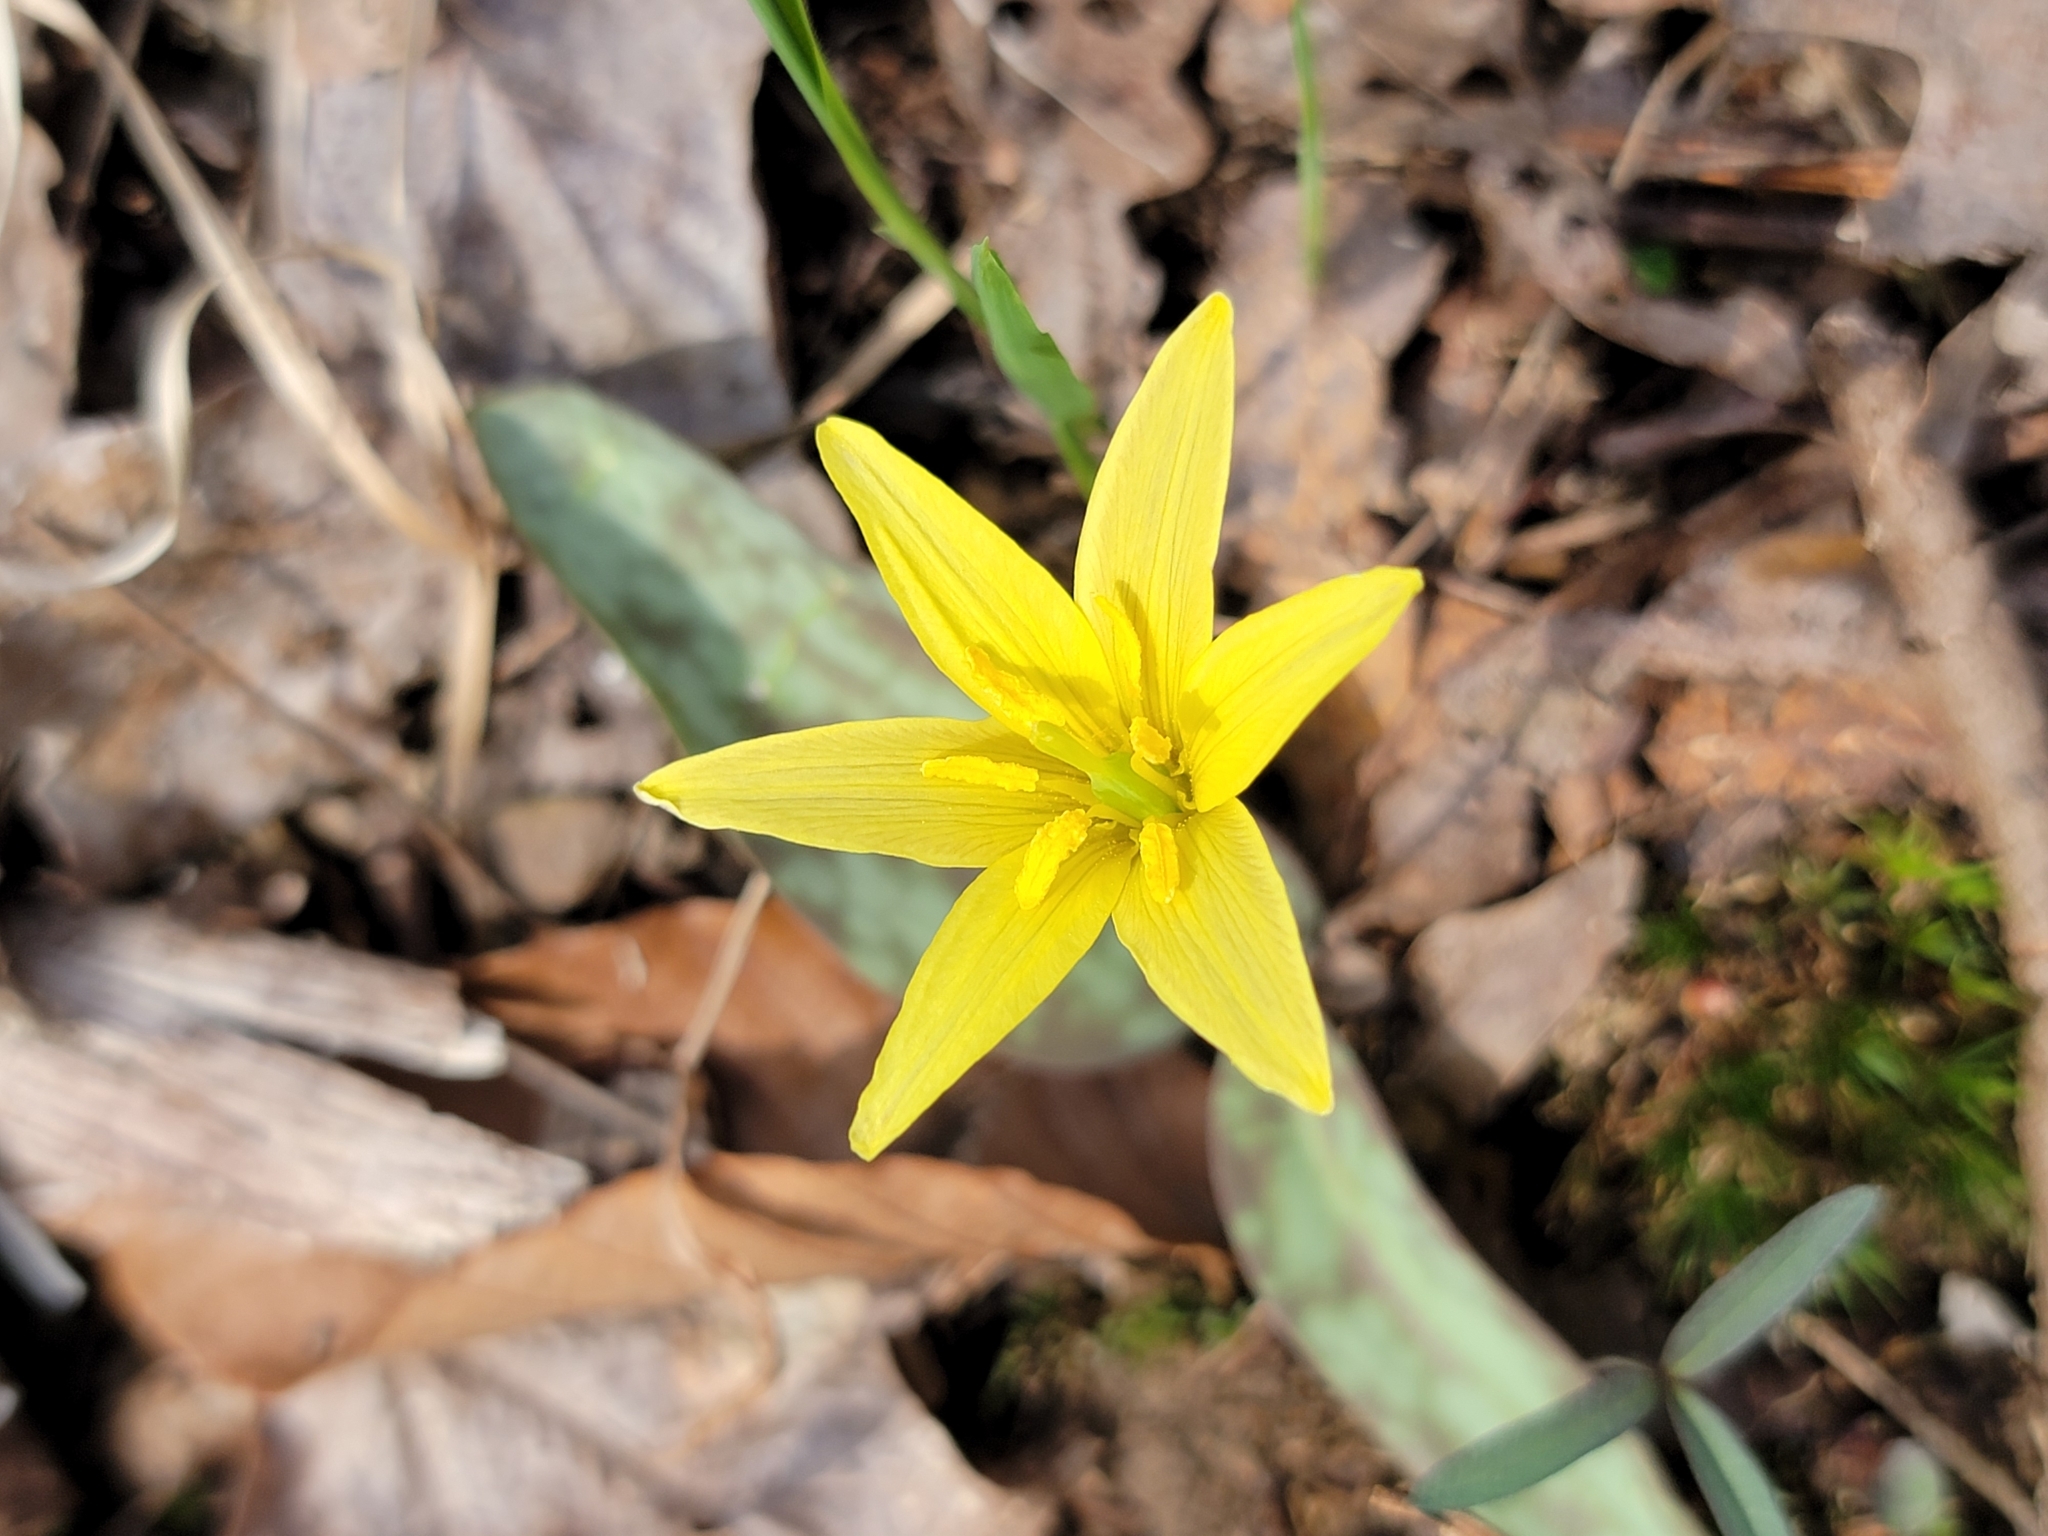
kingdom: Plantae
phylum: Tracheophyta
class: Liliopsida
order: Liliales
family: Liliaceae
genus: Erythronium
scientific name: Erythronium rostratum
